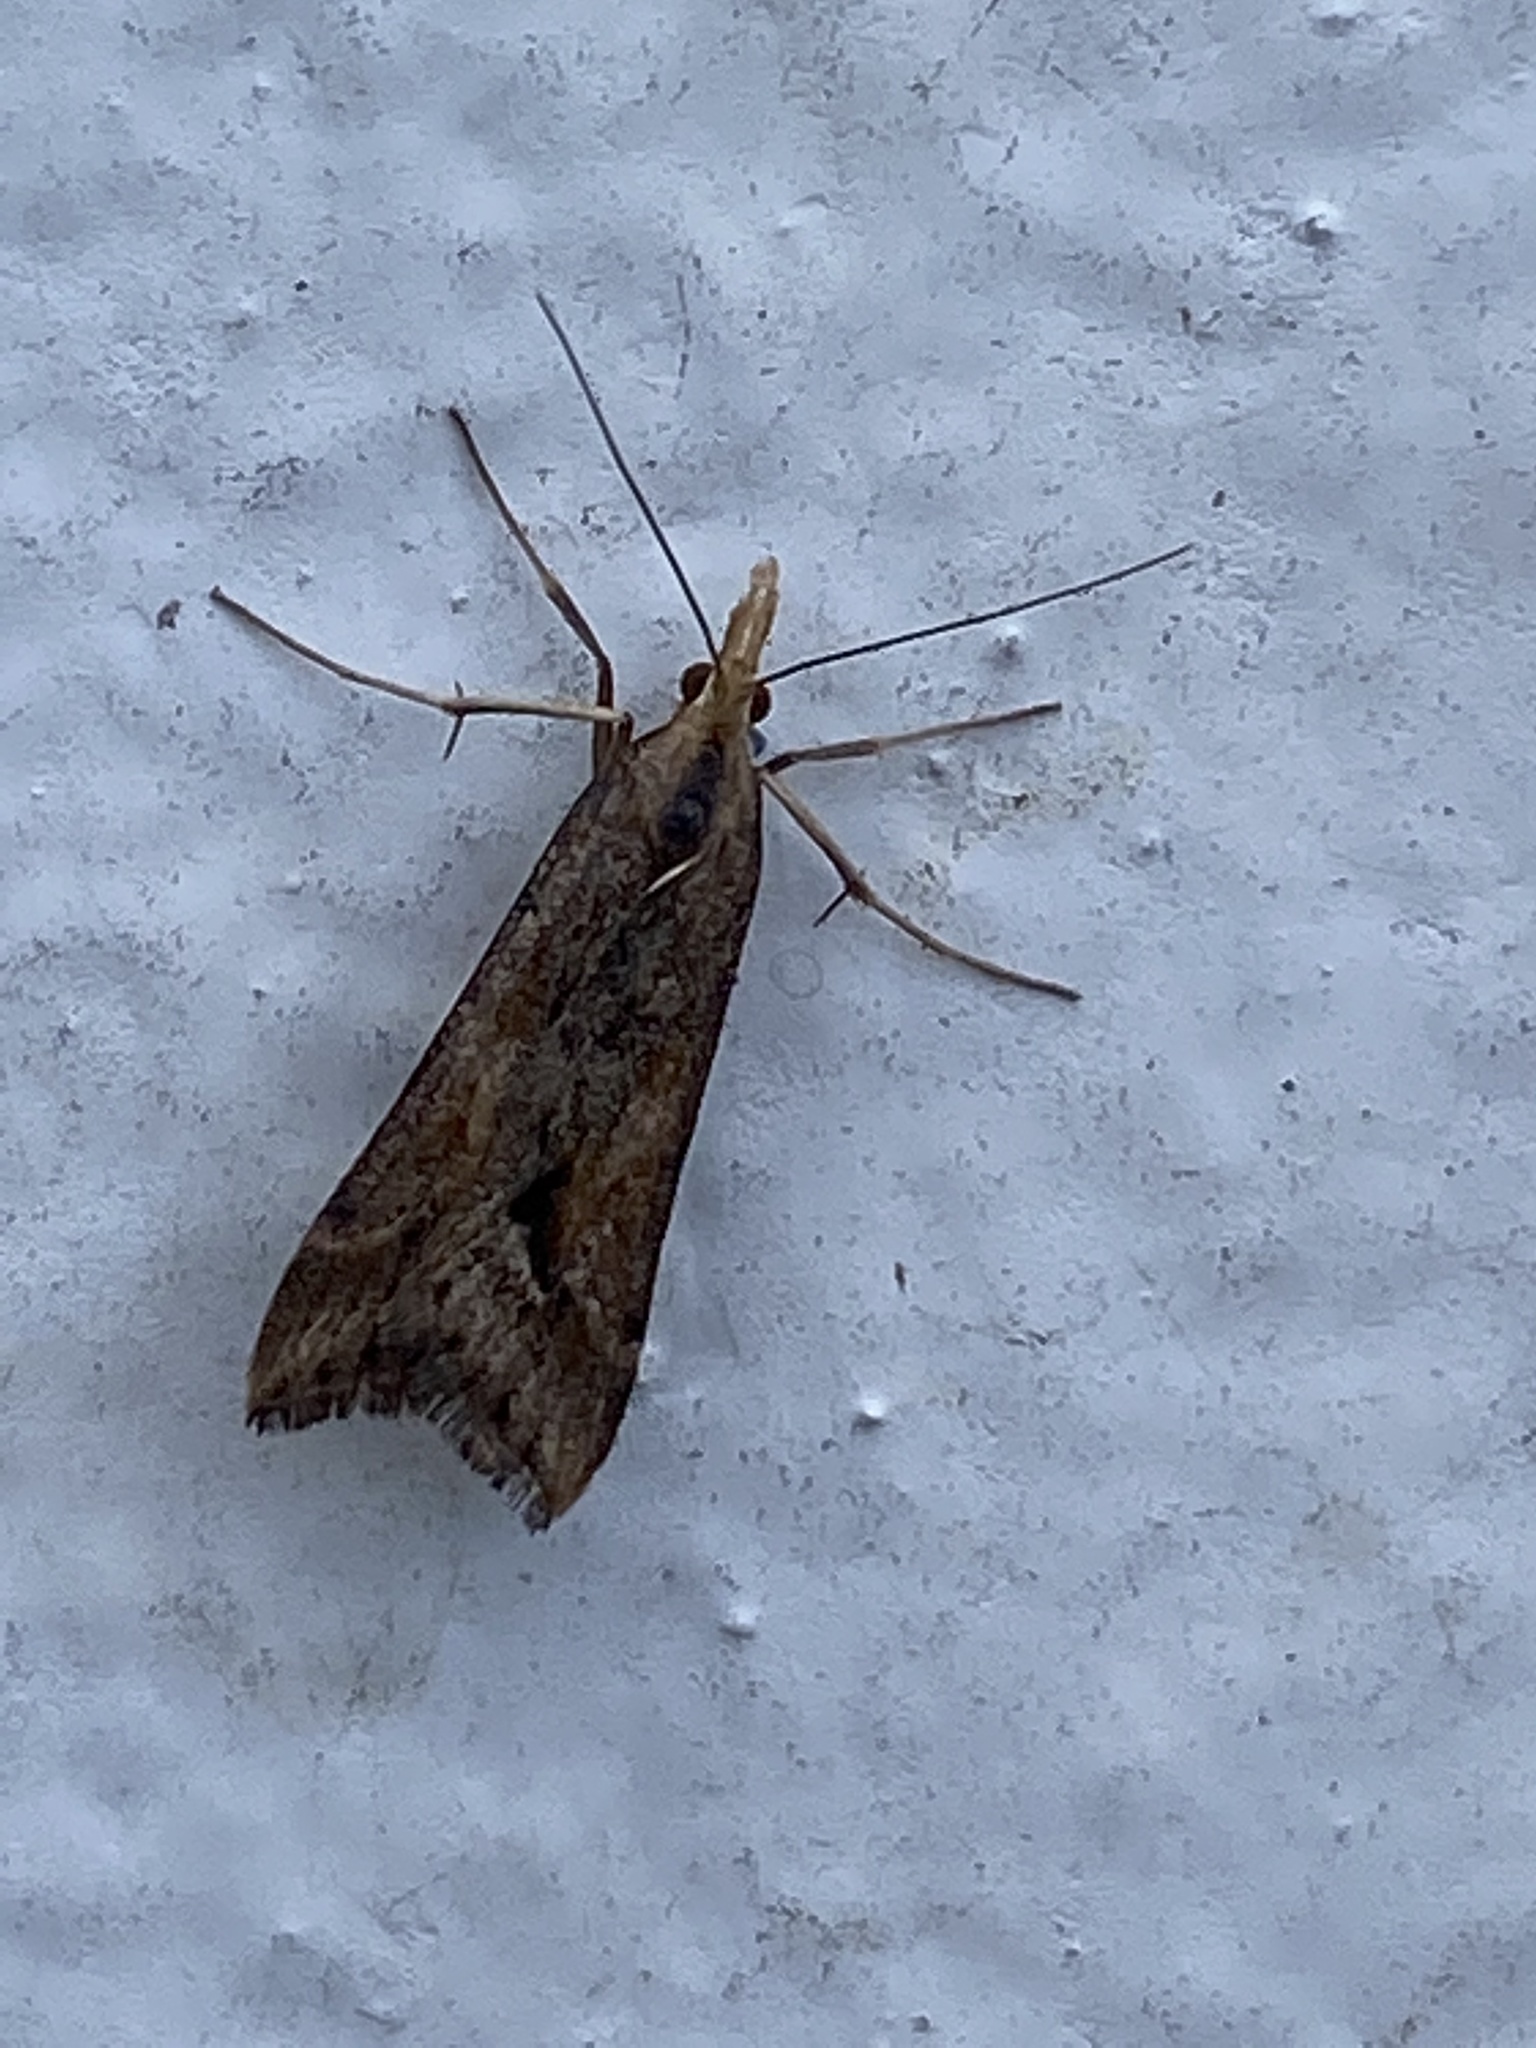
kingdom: Animalia
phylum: Arthropoda
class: Insecta
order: Lepidoptera
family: Crambidae
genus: Diasemia
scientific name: Diasemia monostigma
